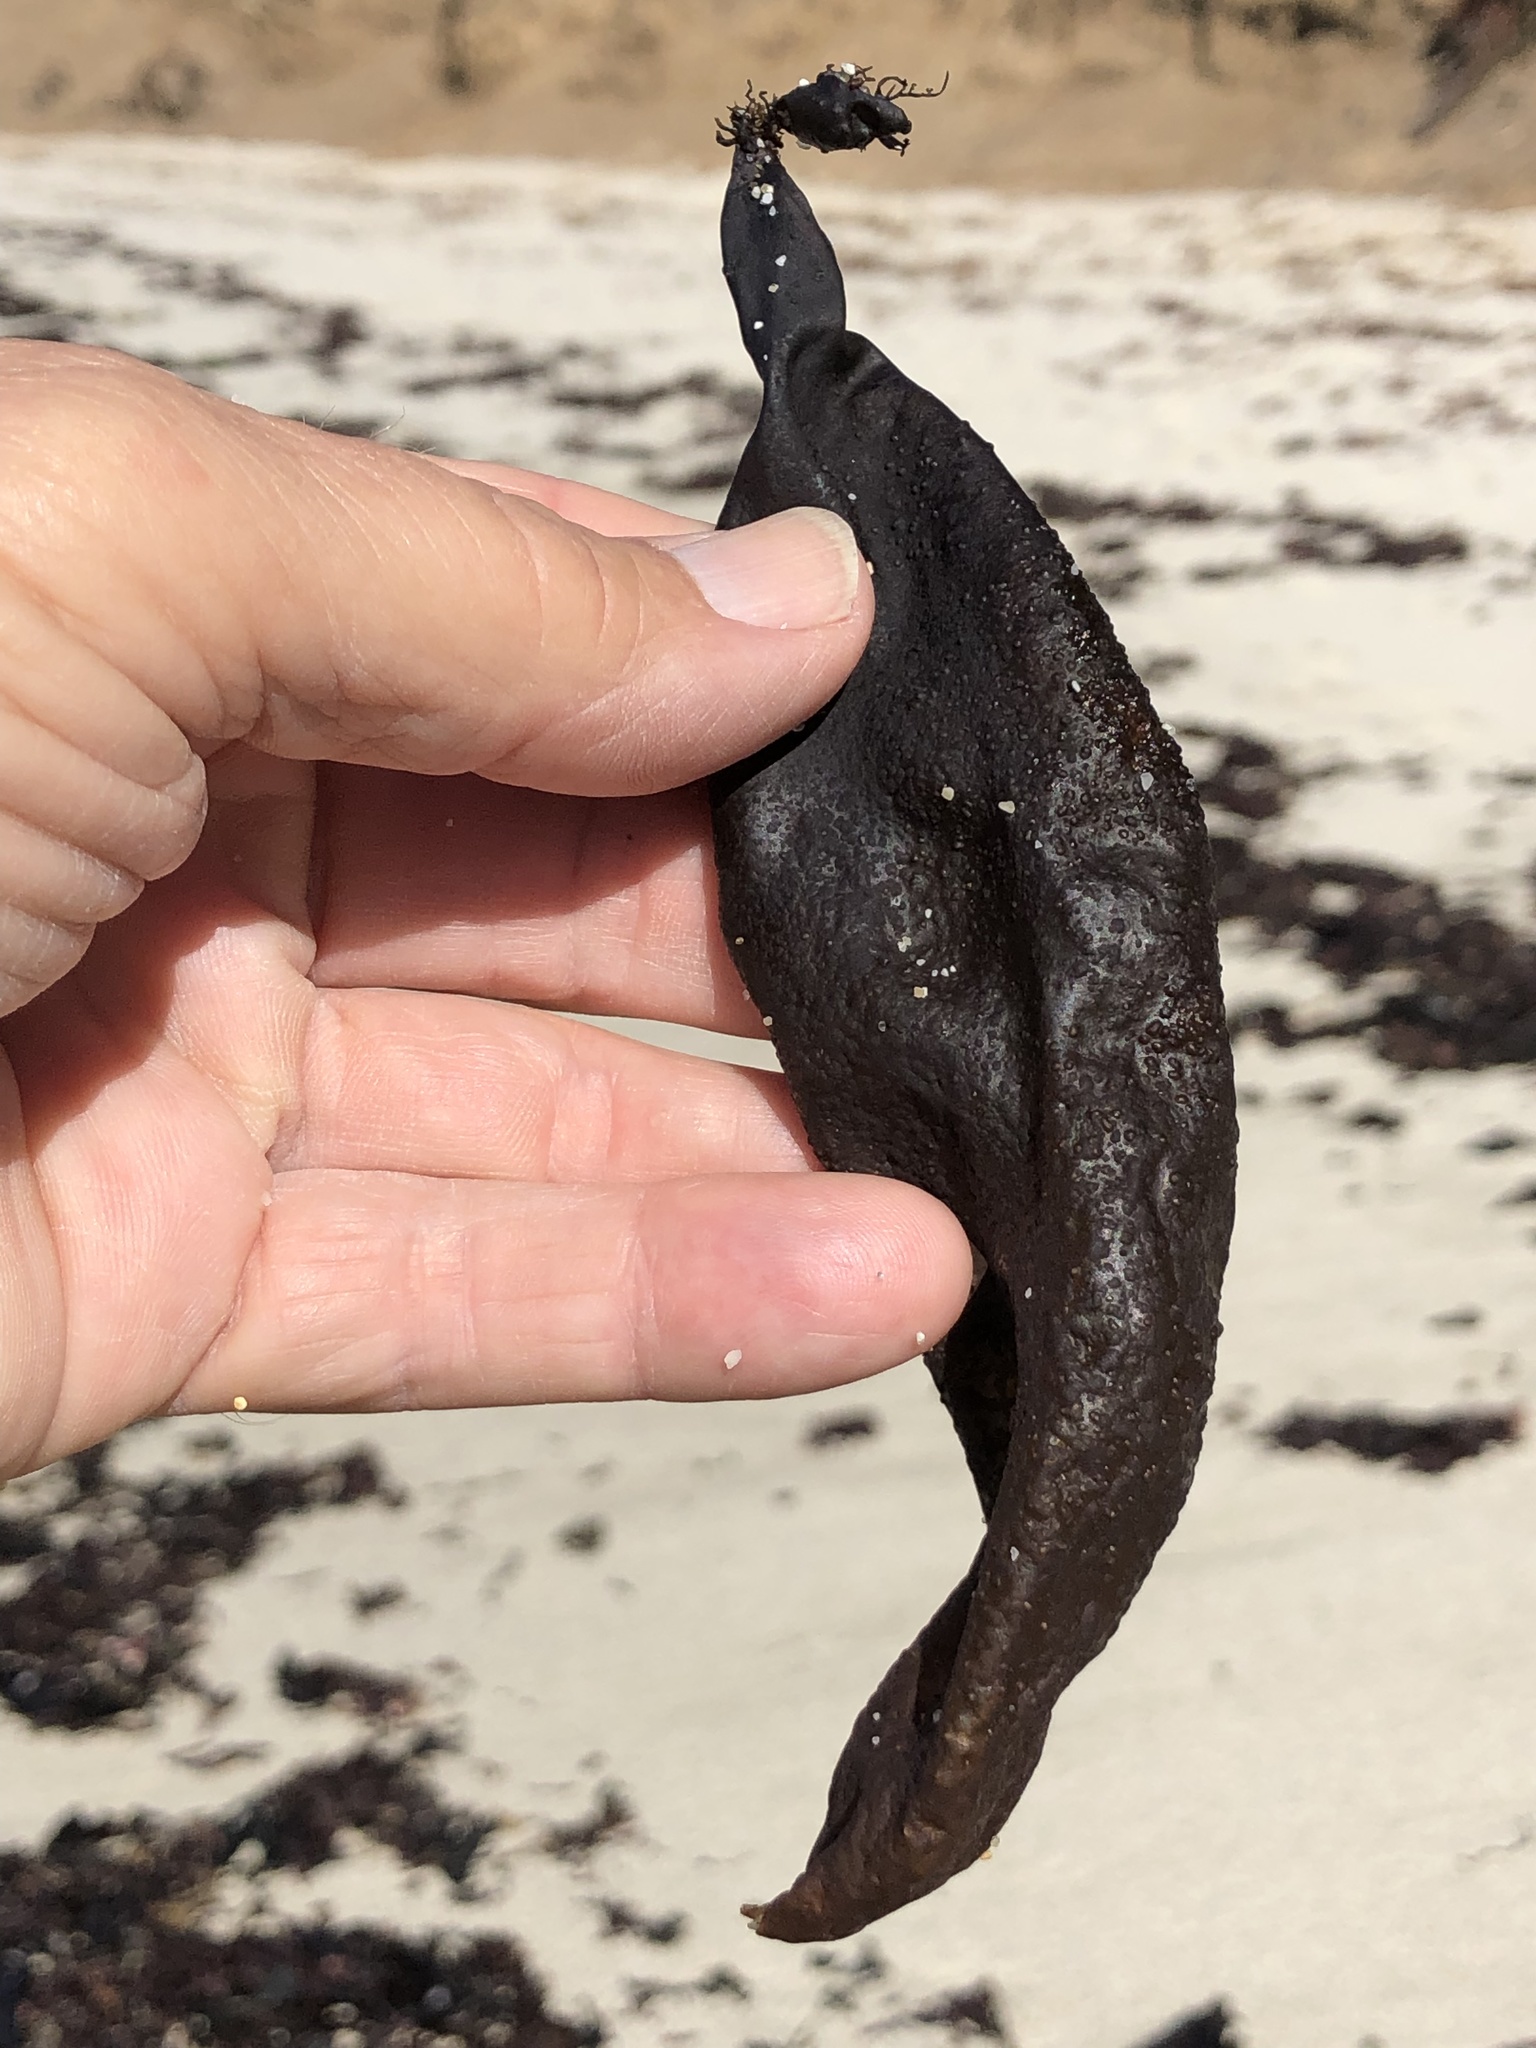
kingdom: Plantae
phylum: Rhodophyta
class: Florideophyceae
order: Palmariales
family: Palmariaceae
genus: Halosaccion
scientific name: Halosaccion glandiforme
